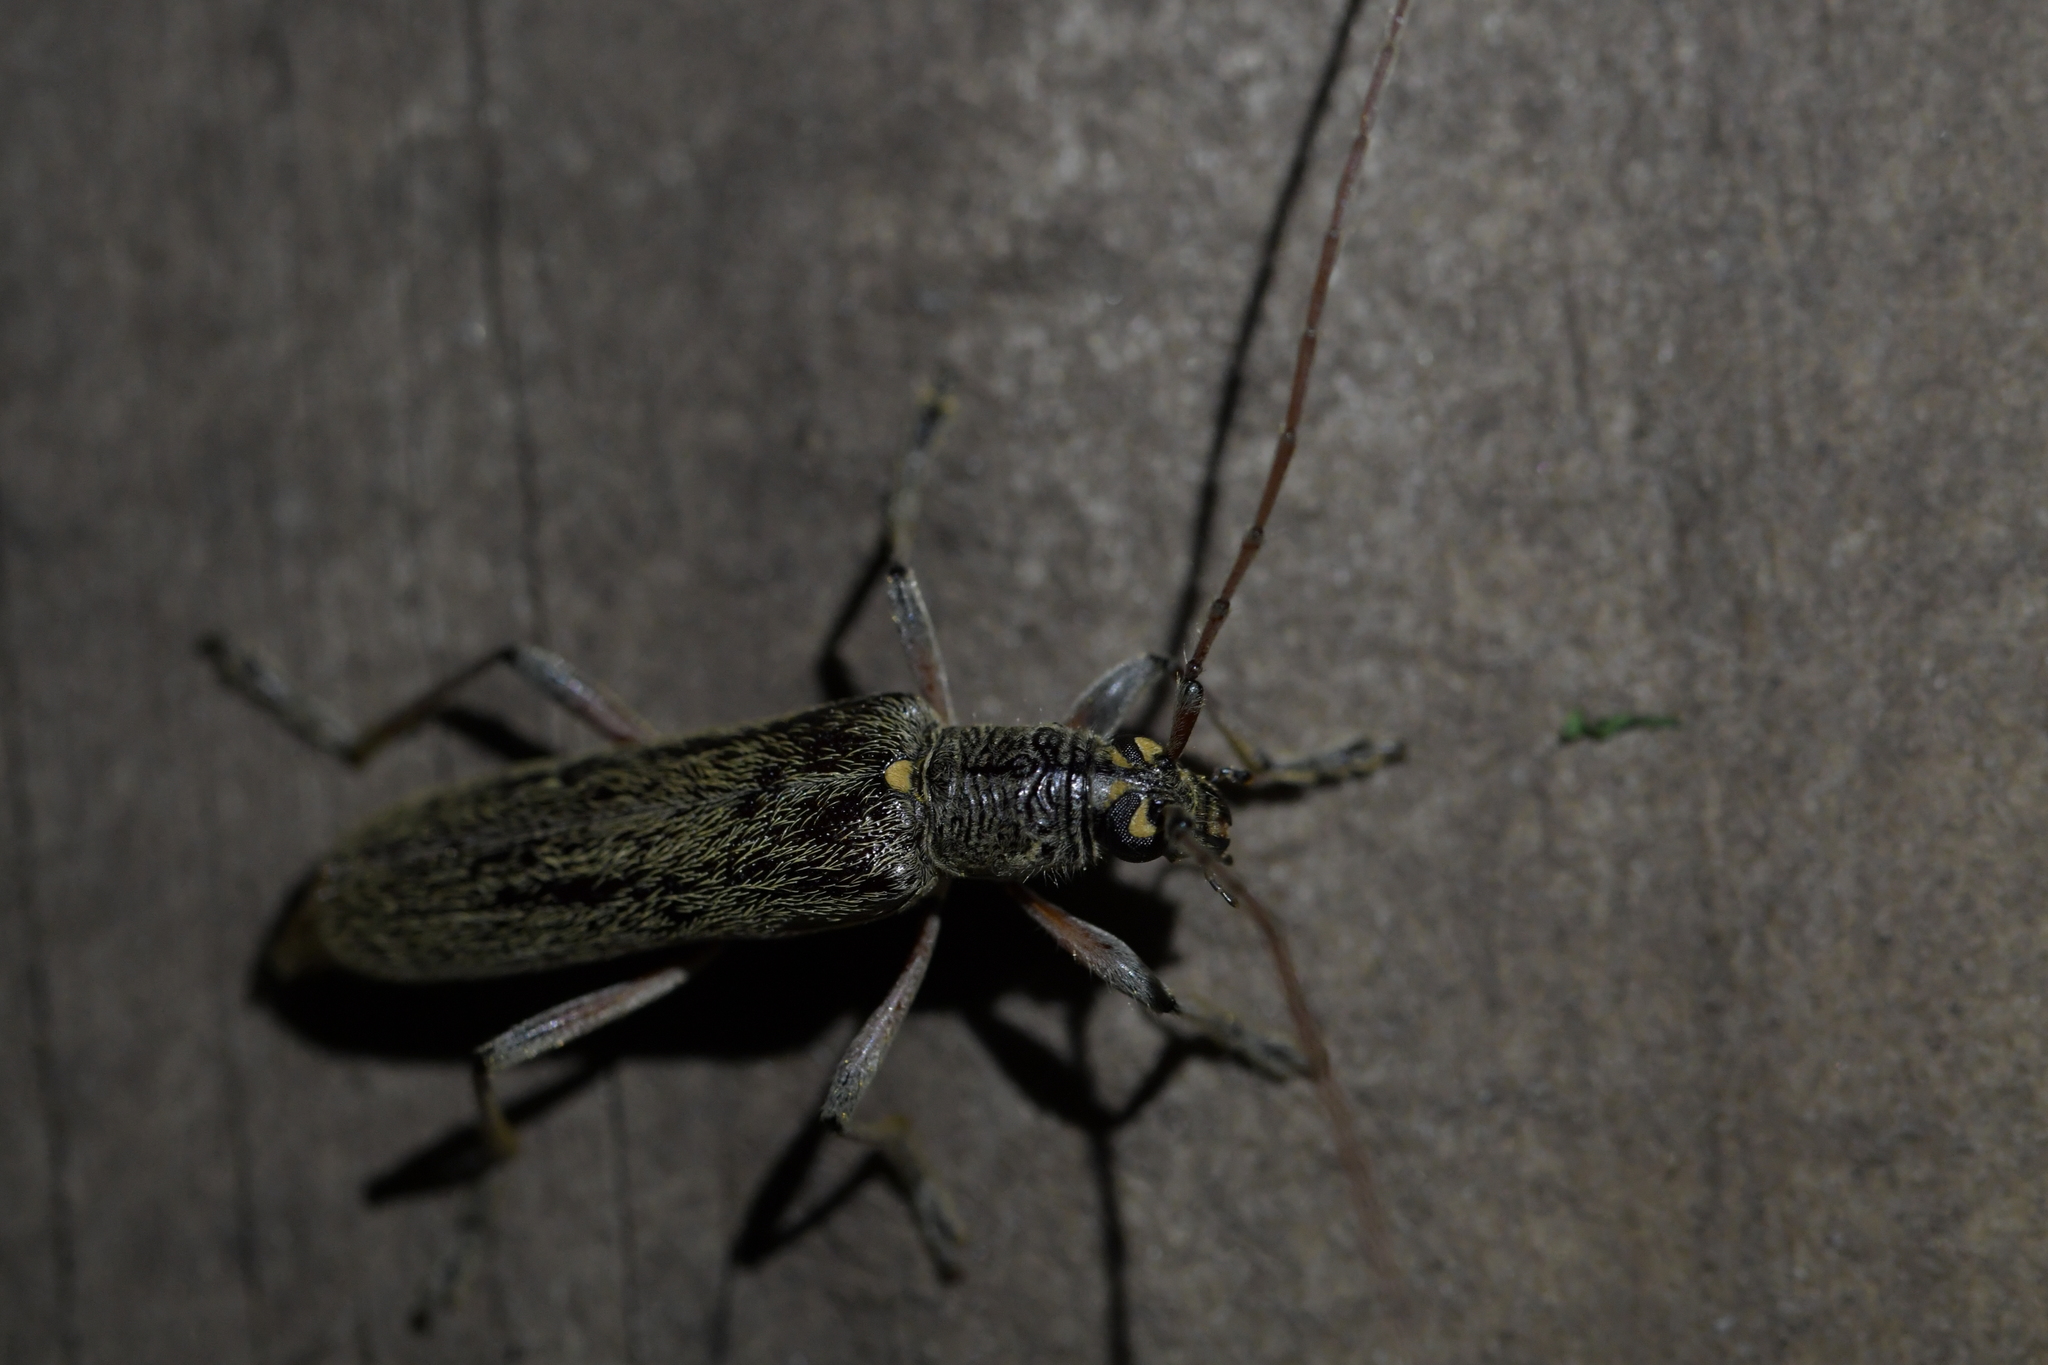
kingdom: Animalia
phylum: Arthropoda
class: Insecta
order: Coleoptera
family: Cerambycidae
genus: Oemona
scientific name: Oemona hirta
